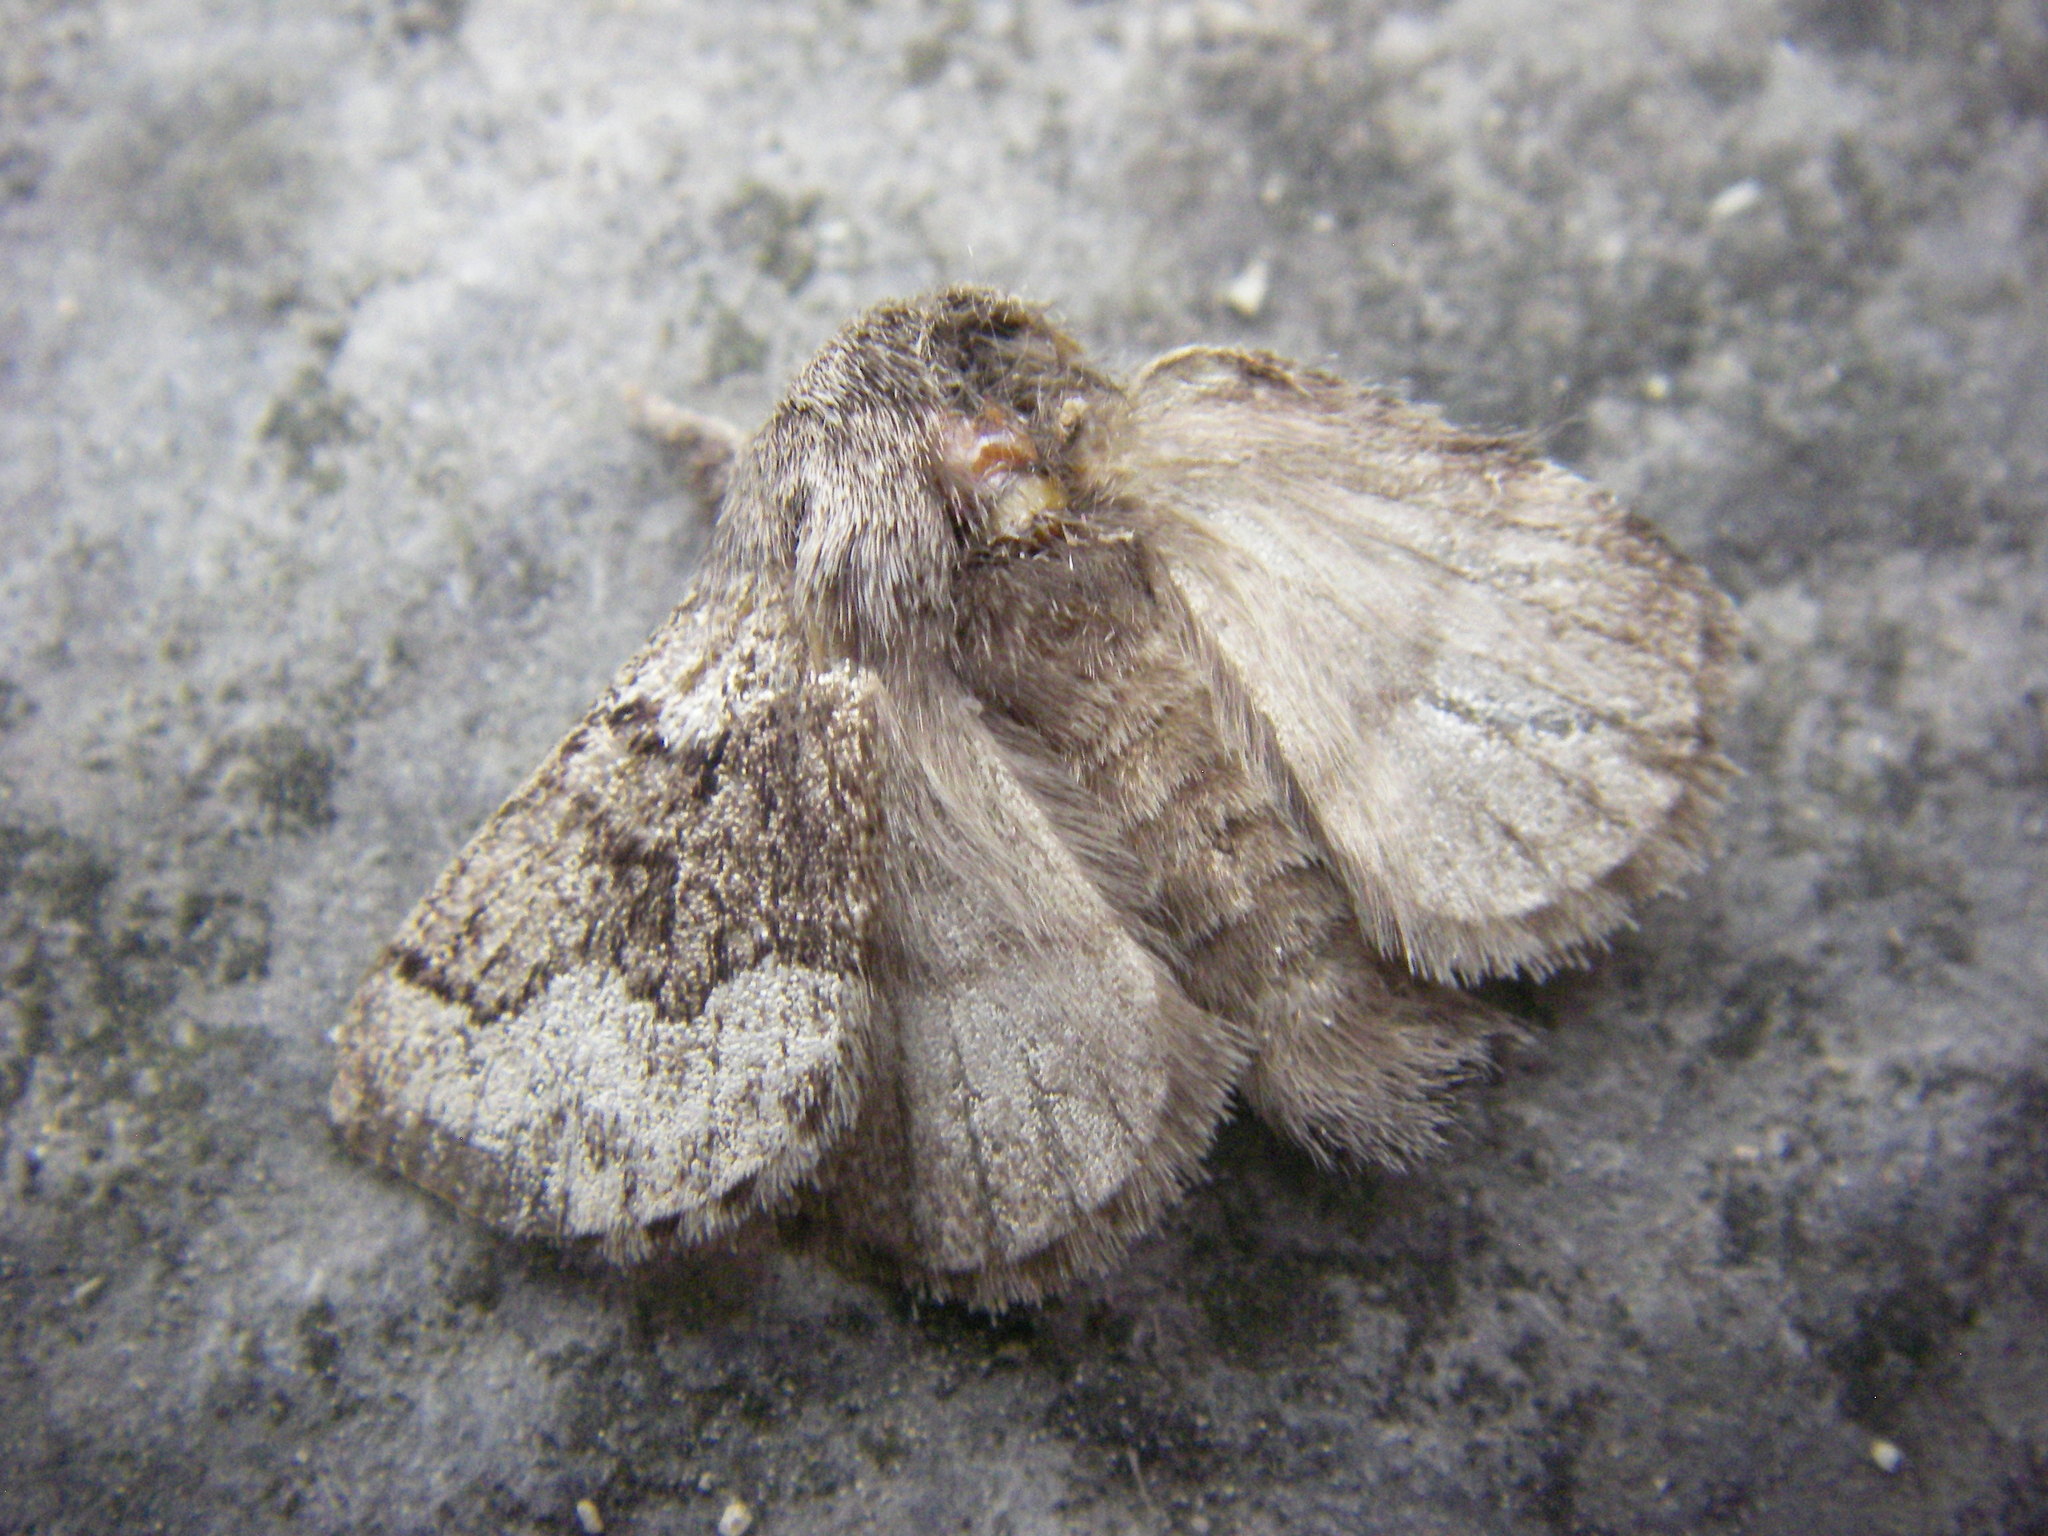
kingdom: Animalia
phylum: Arthropoda
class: Insecta
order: Lepidoptera
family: Lasiocampidae
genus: Trichiura
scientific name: Trichiura crataegi
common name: Pale eggar
